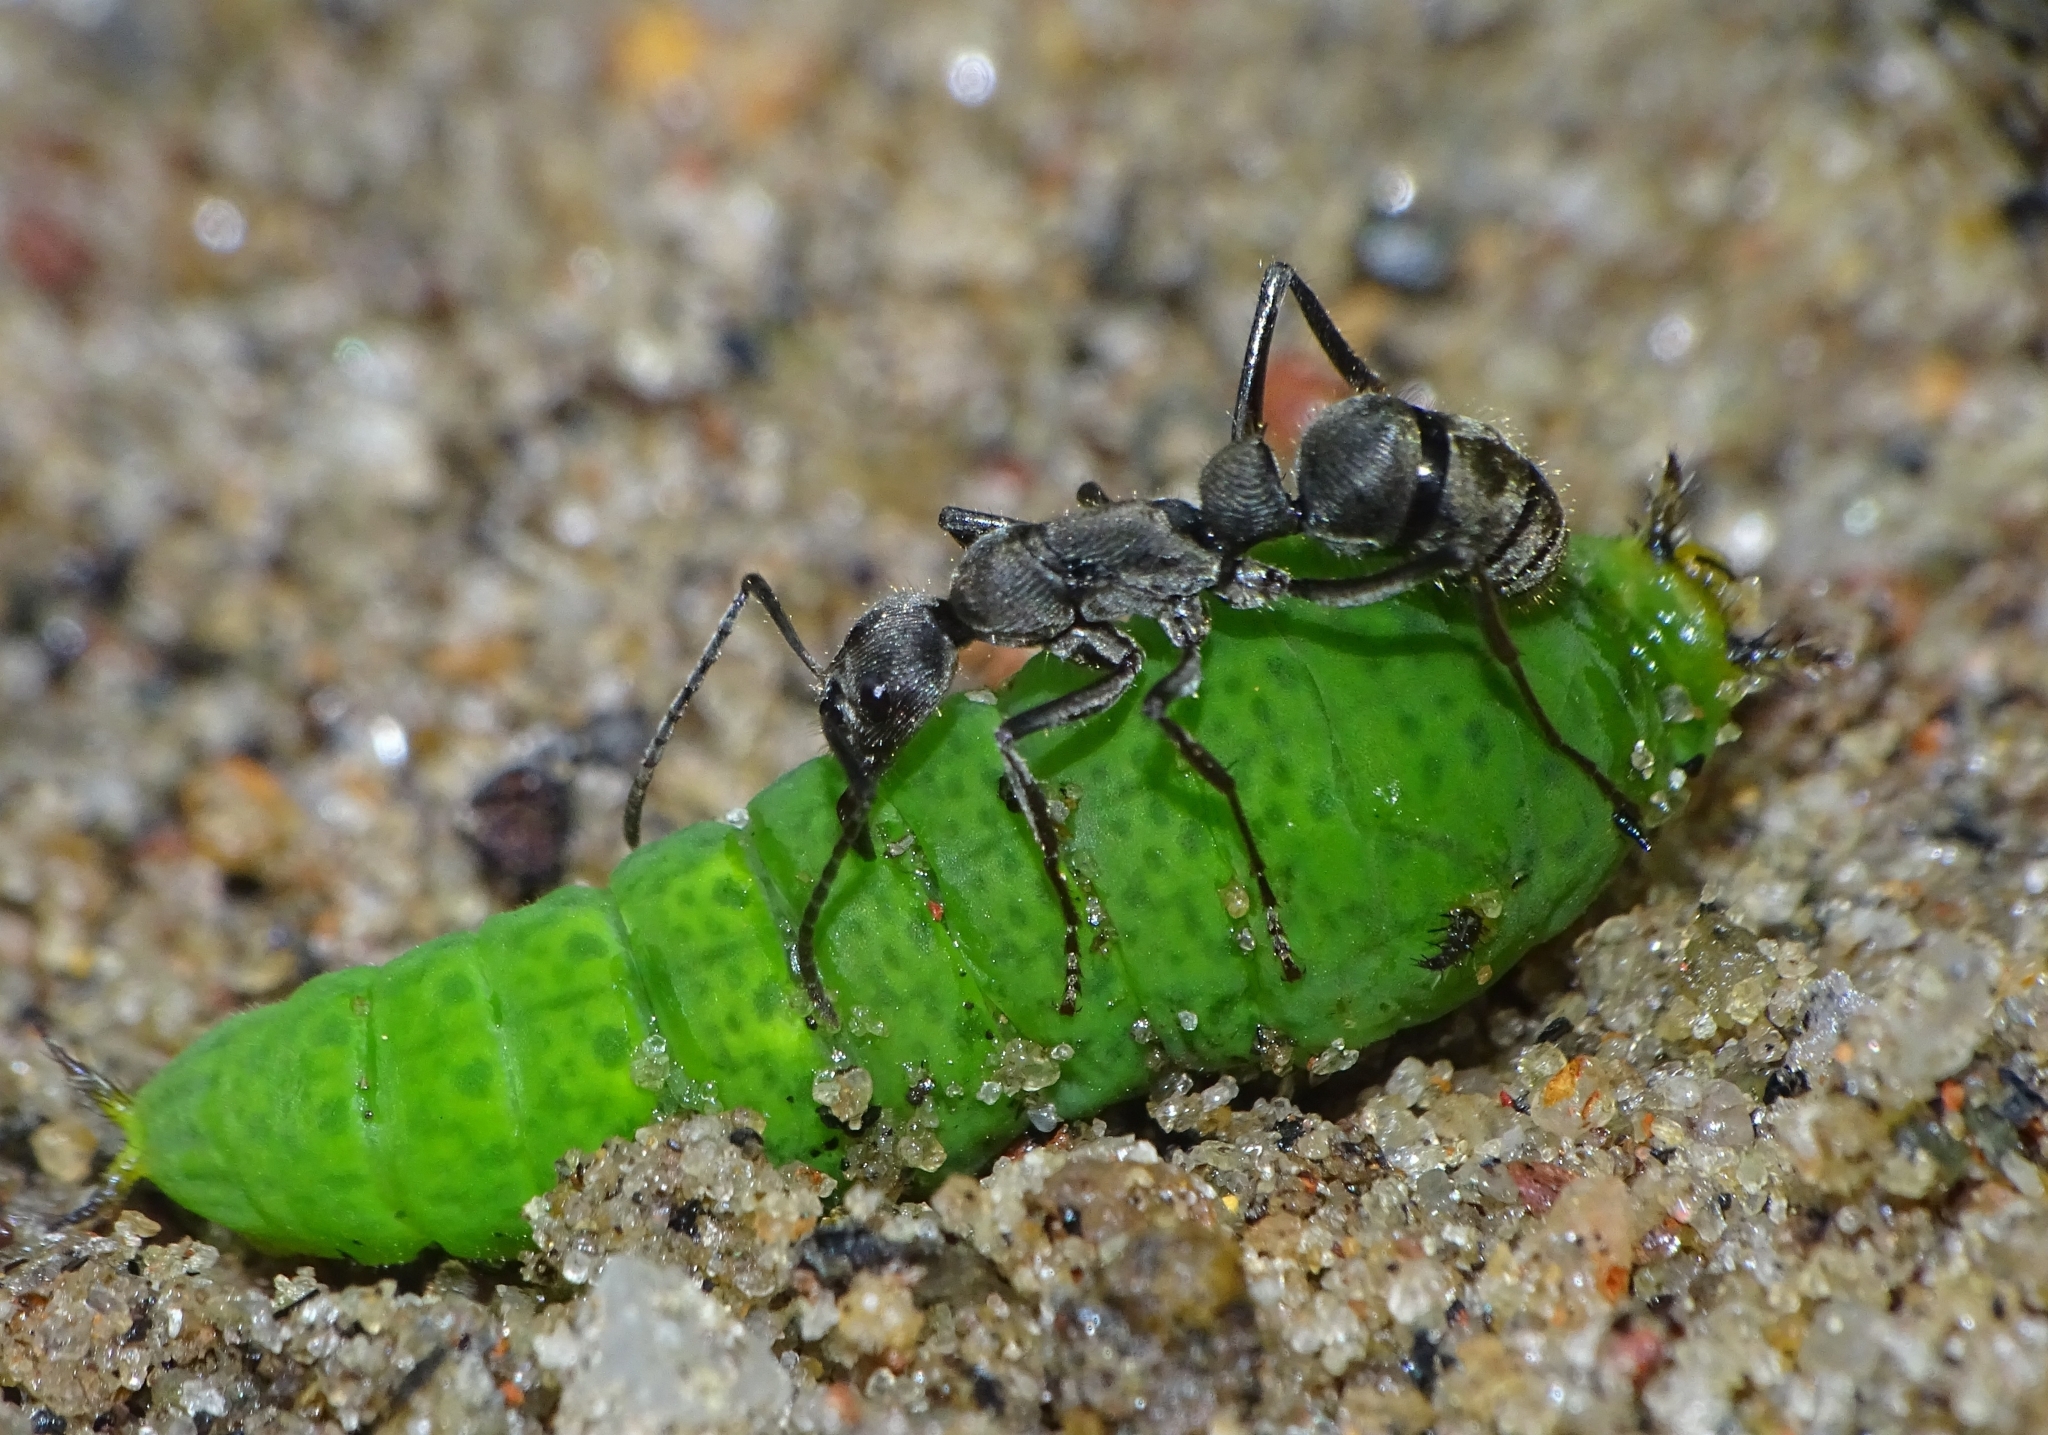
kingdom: Animalia
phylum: Arthropoda
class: Insecta
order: Lepidoptera
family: Papilionidae
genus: Graphium
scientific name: Graphium agamemnon
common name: Tailed jay
